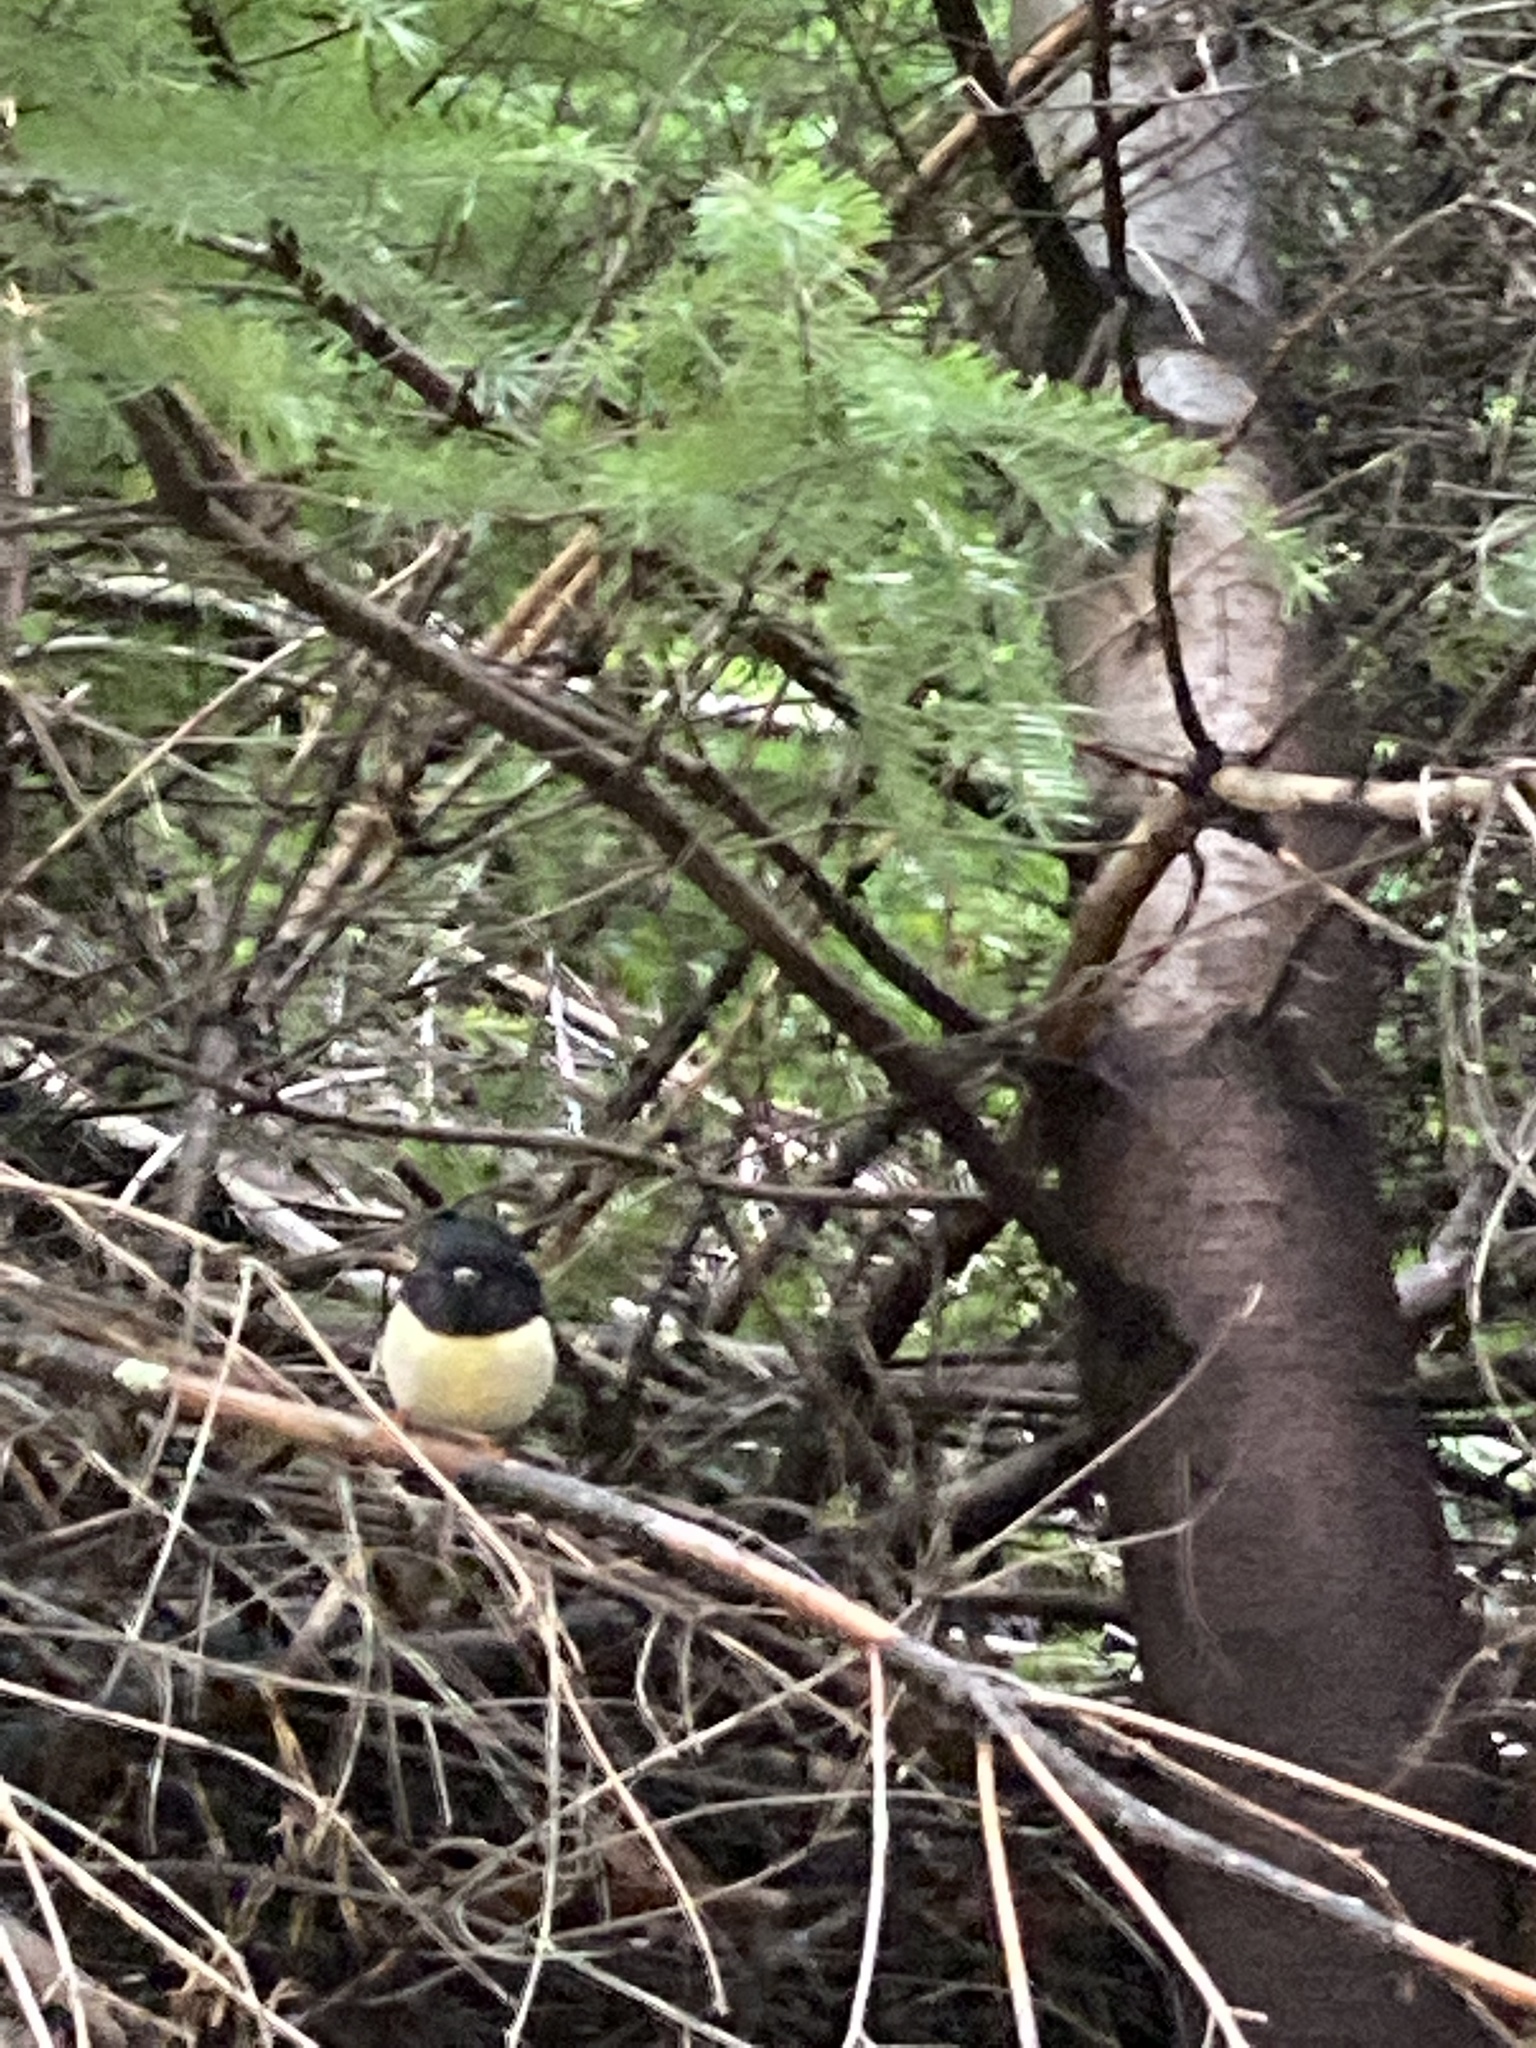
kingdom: Animalia
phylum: Chordata
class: Aves
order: Passeriformes
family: Petroicidae
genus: Petroica
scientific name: Petroica macrocephala
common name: Tomtit
